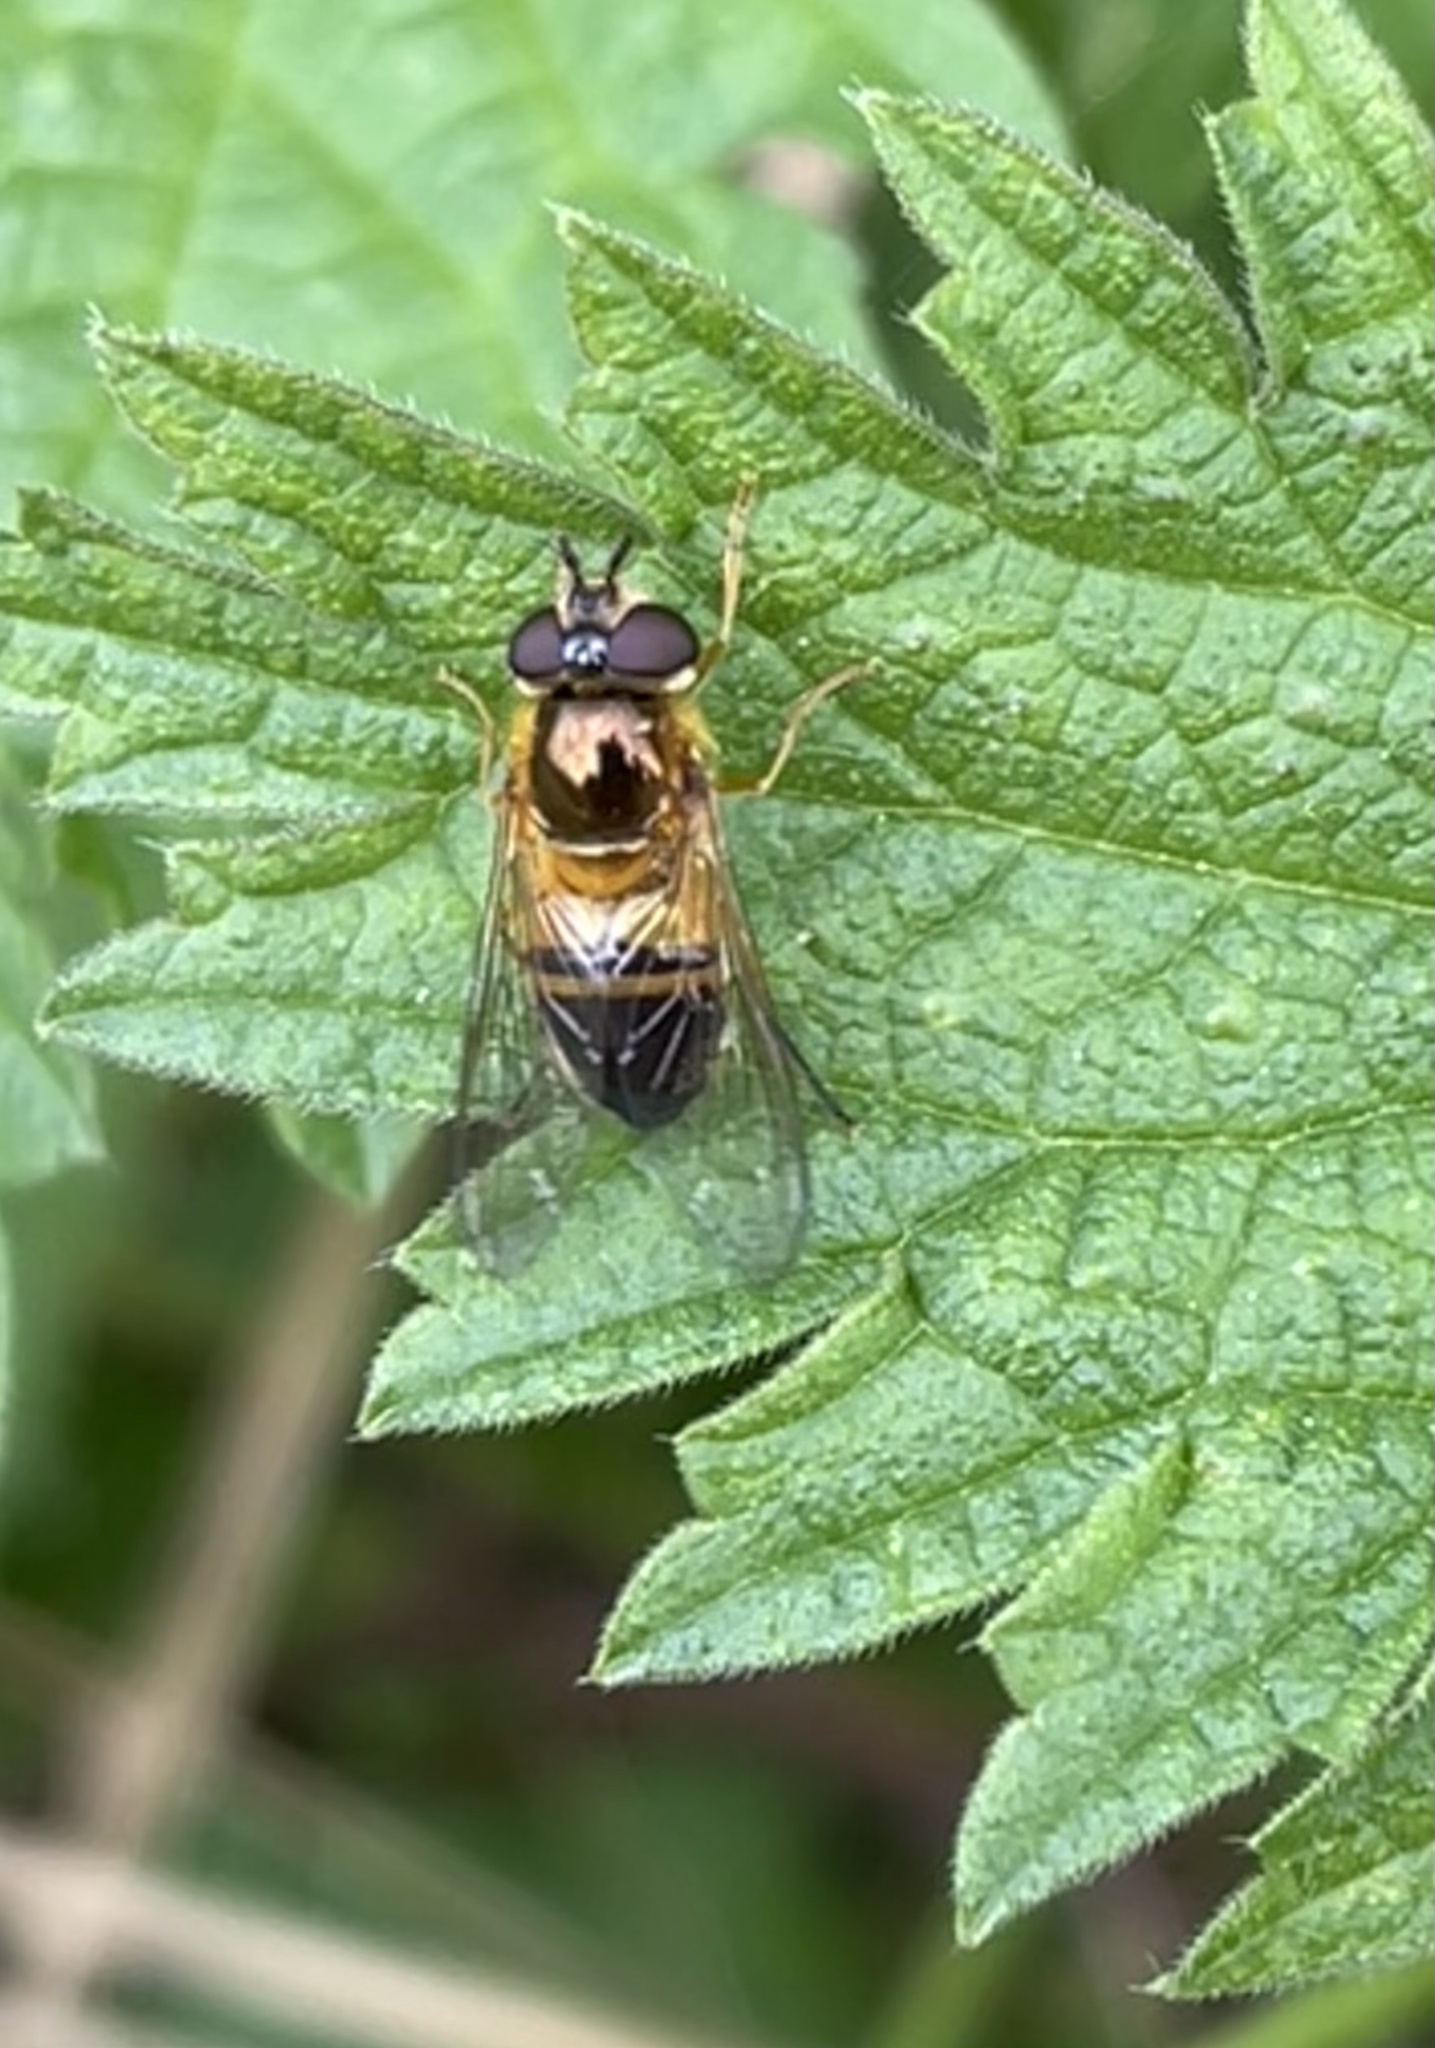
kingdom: Animalia
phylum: Arthropoda
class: Insecta
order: Diptera
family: Syrphidae
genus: Epistrophe
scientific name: Epistrophe eligans
